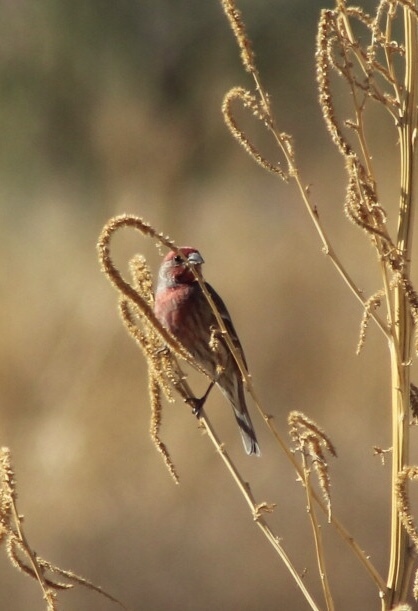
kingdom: Animalia
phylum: Chordata
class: Aves
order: Passeriformes
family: Fringillidae
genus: Haemorhous
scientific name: Haemorhous mexicanus
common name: House finch
